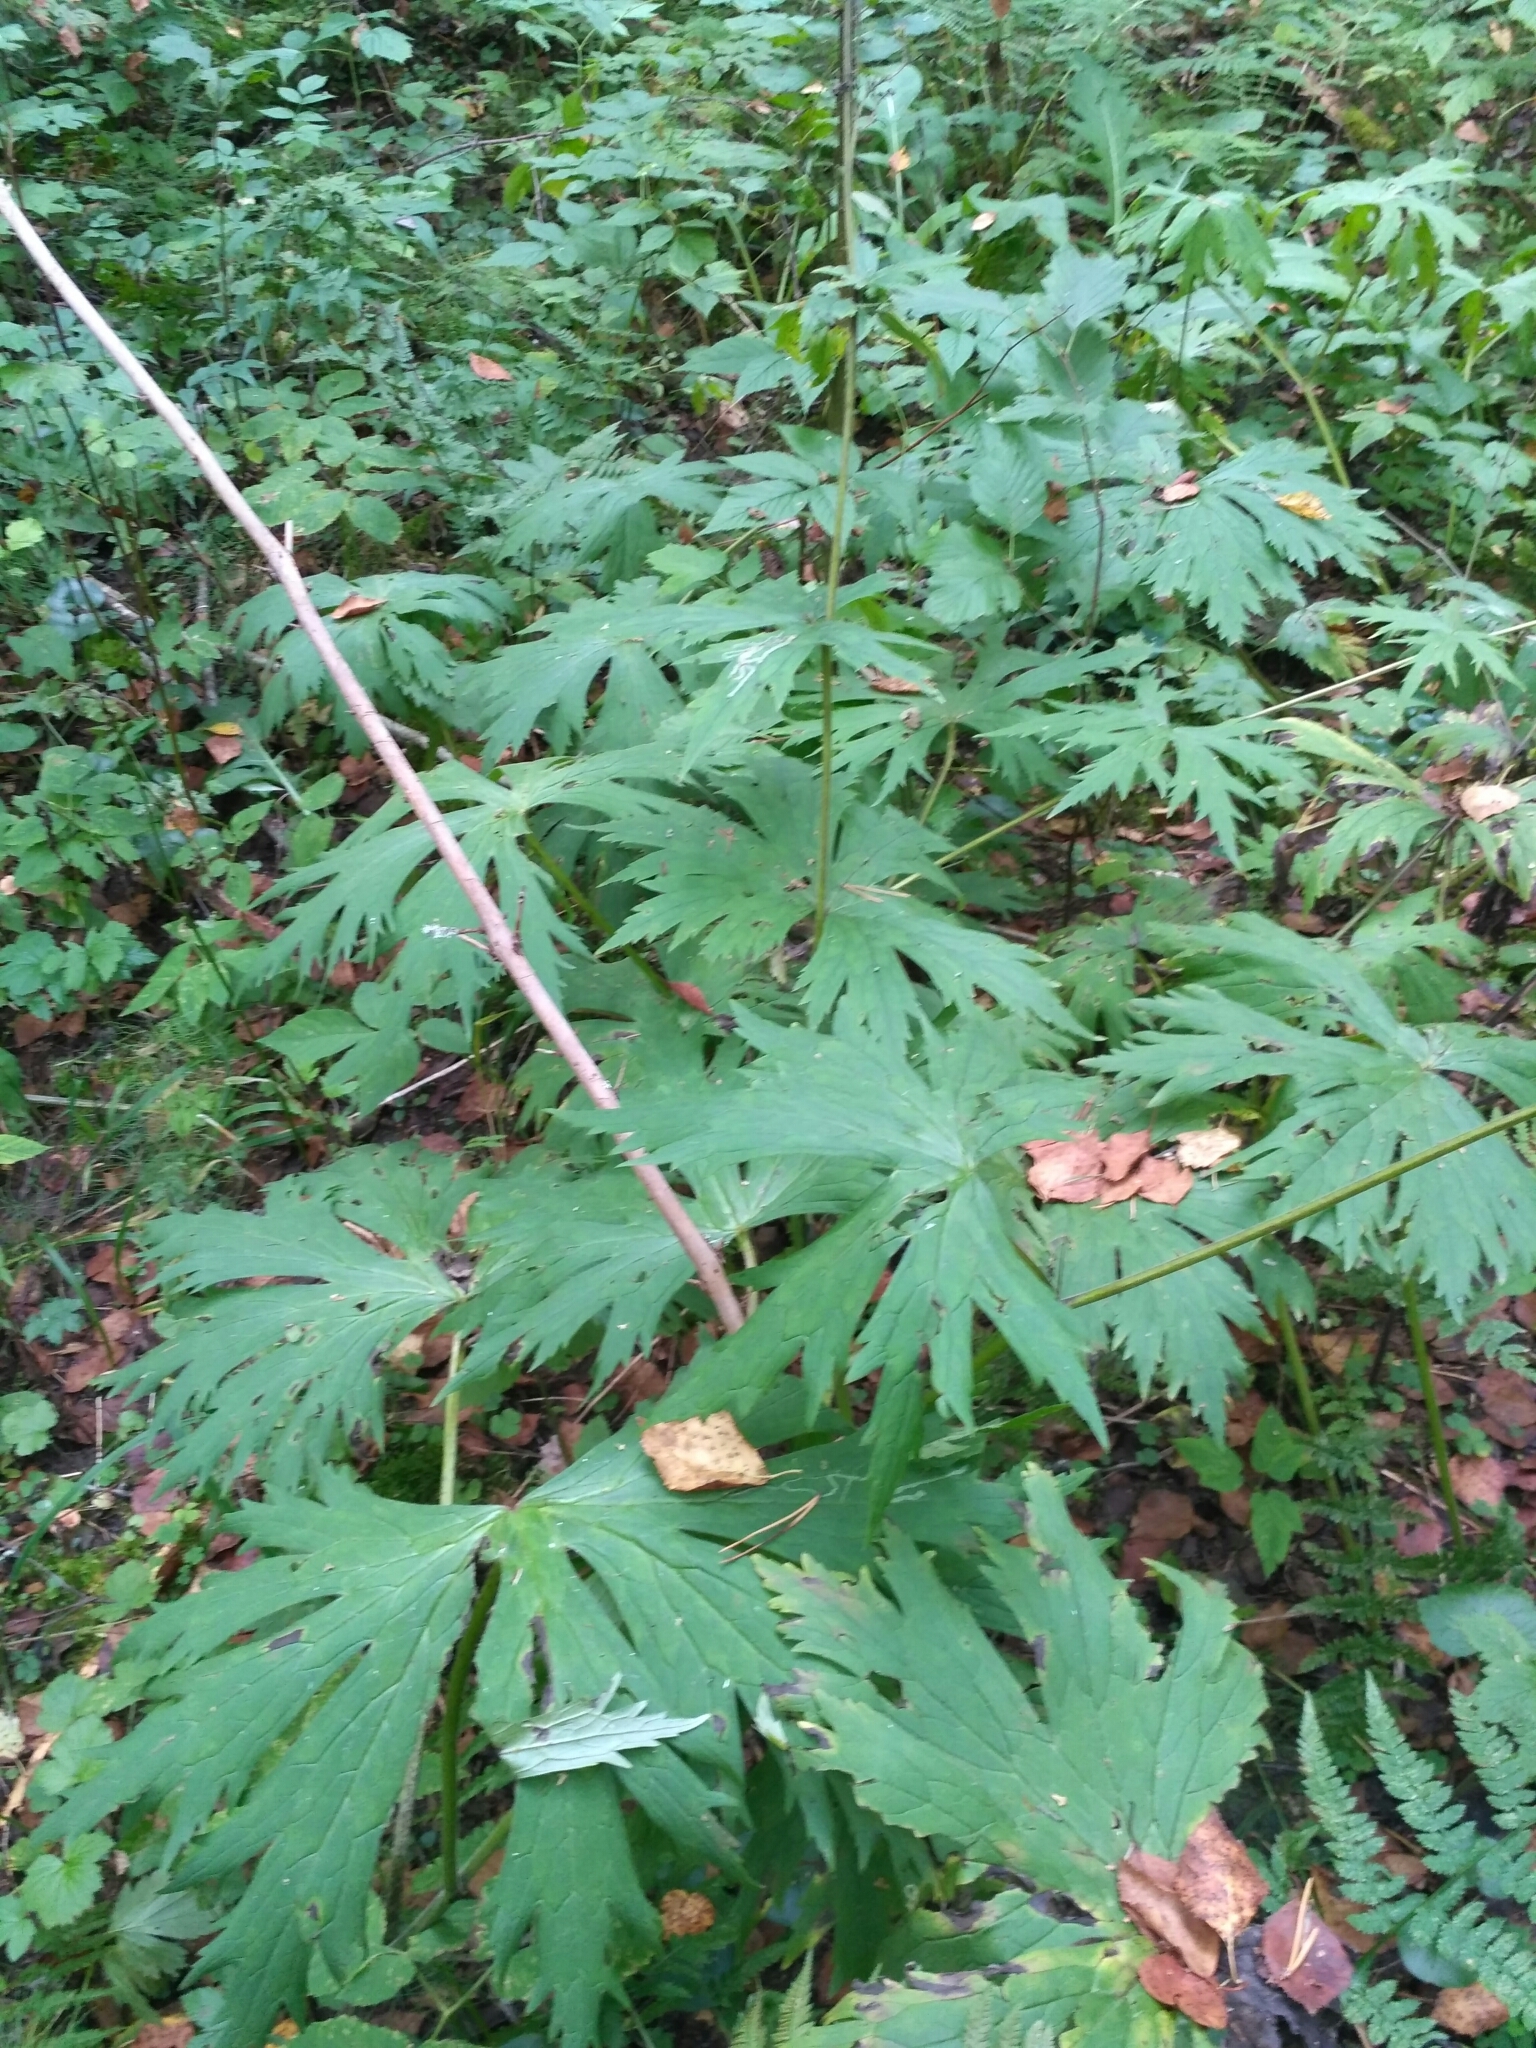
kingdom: Plantae
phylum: Tracheophyta
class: Magnoliopsida
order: Ranunculales
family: Ranunculaceae
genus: Aconitum
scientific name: Aconitum septentrionale
